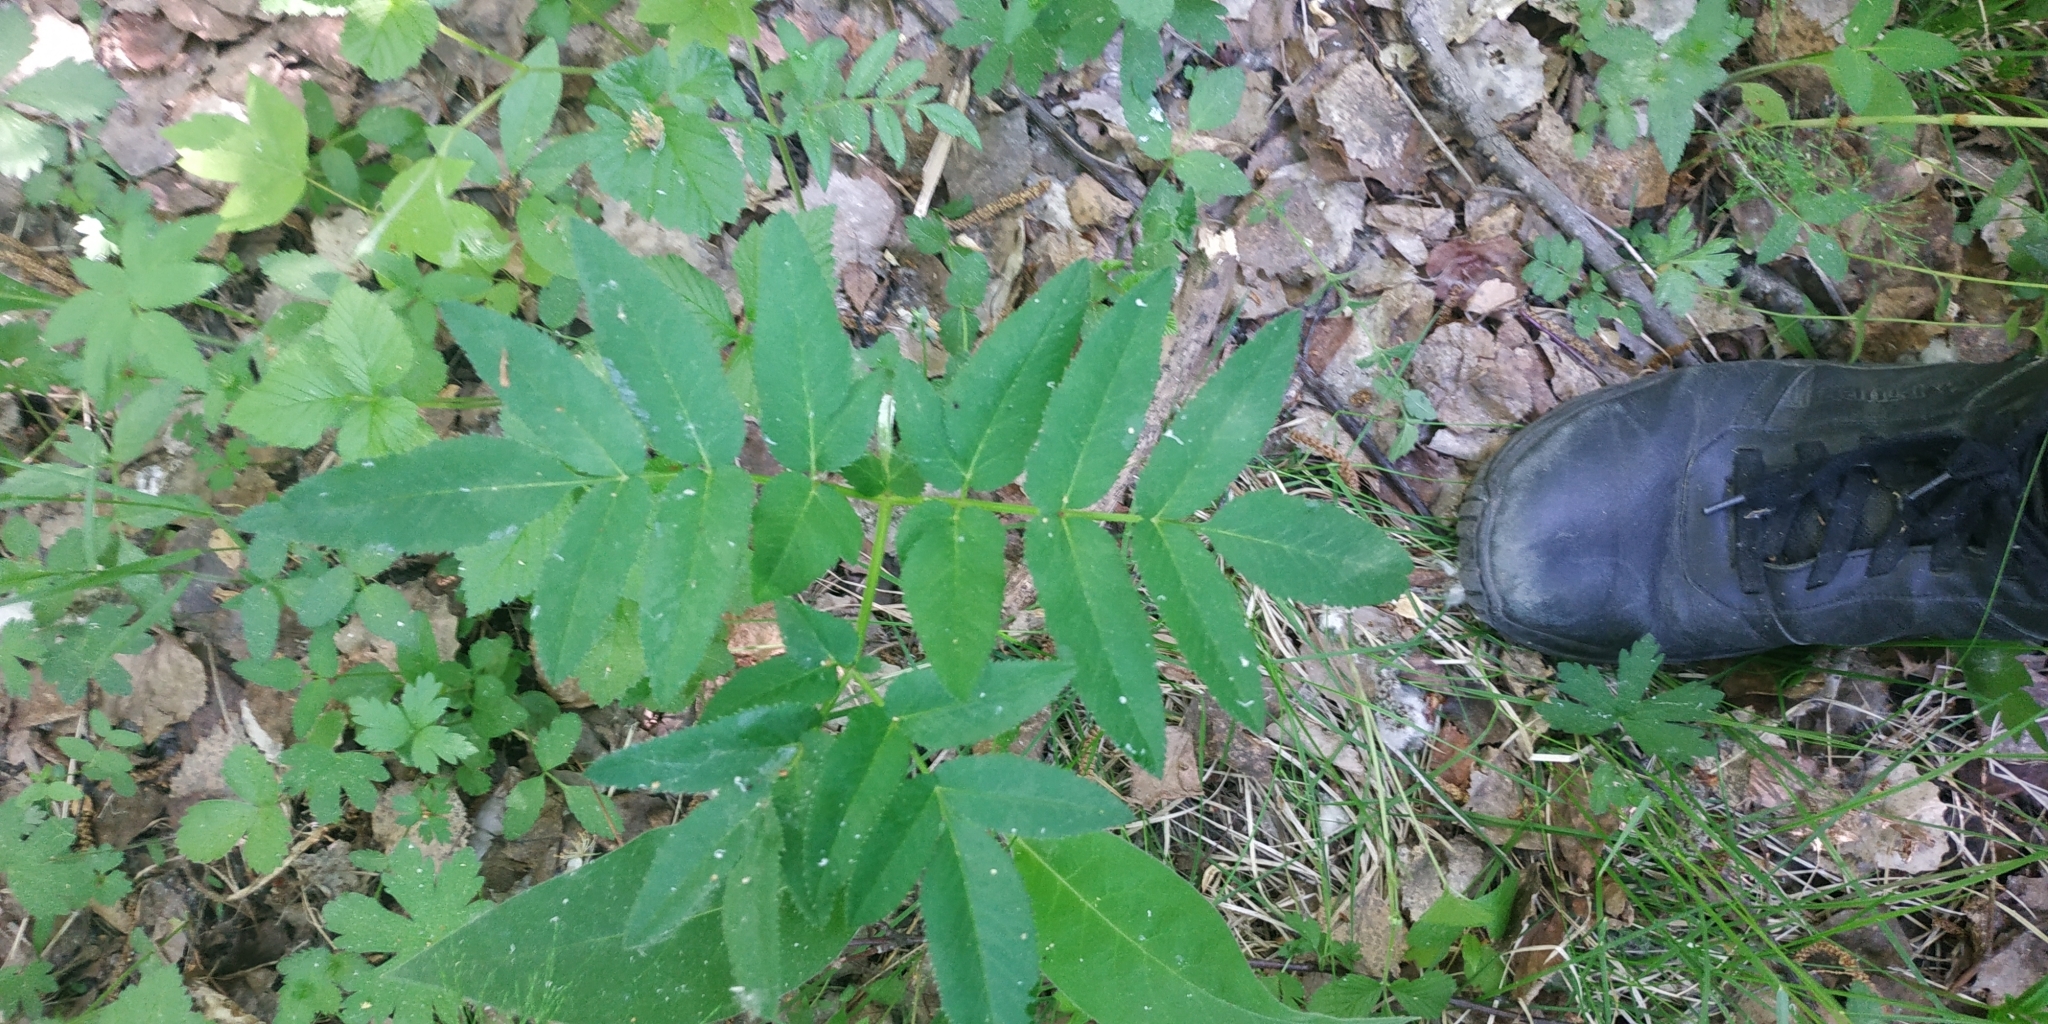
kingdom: Plantae
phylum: Tracheophyta
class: Magnoliopsida
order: Apiales
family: Apiaceae
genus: Angelica
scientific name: Angelica sylvestris
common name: Wild angelica
